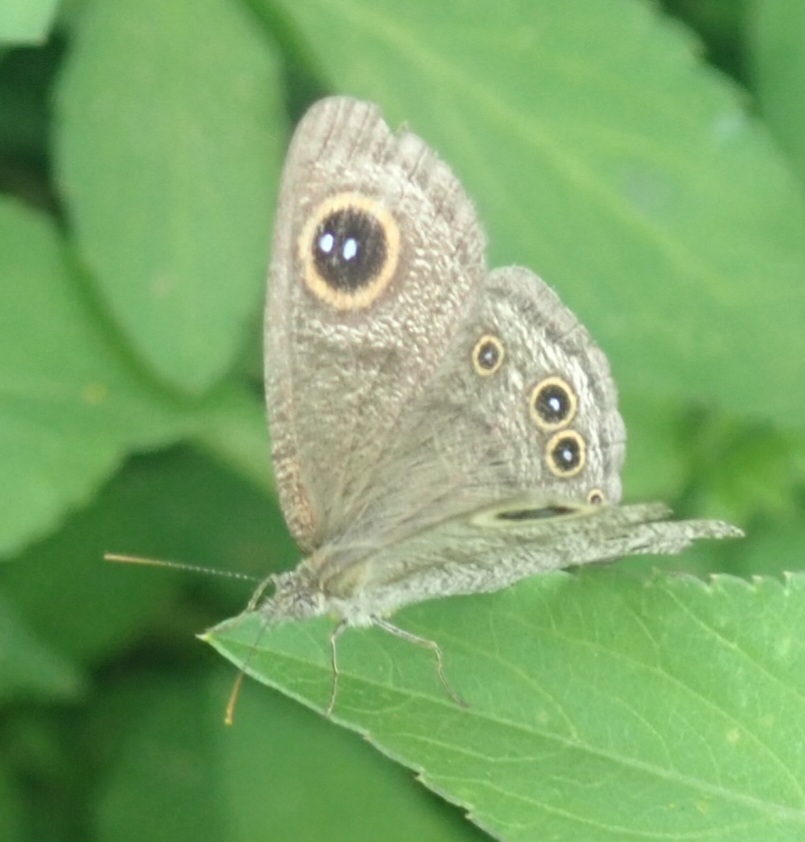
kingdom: Animalia
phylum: Arthropoda
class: Insecta
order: Lepidoptera
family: Nymphalidae
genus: Ypthima
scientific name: Ypthima baldus
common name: Common five-ring
